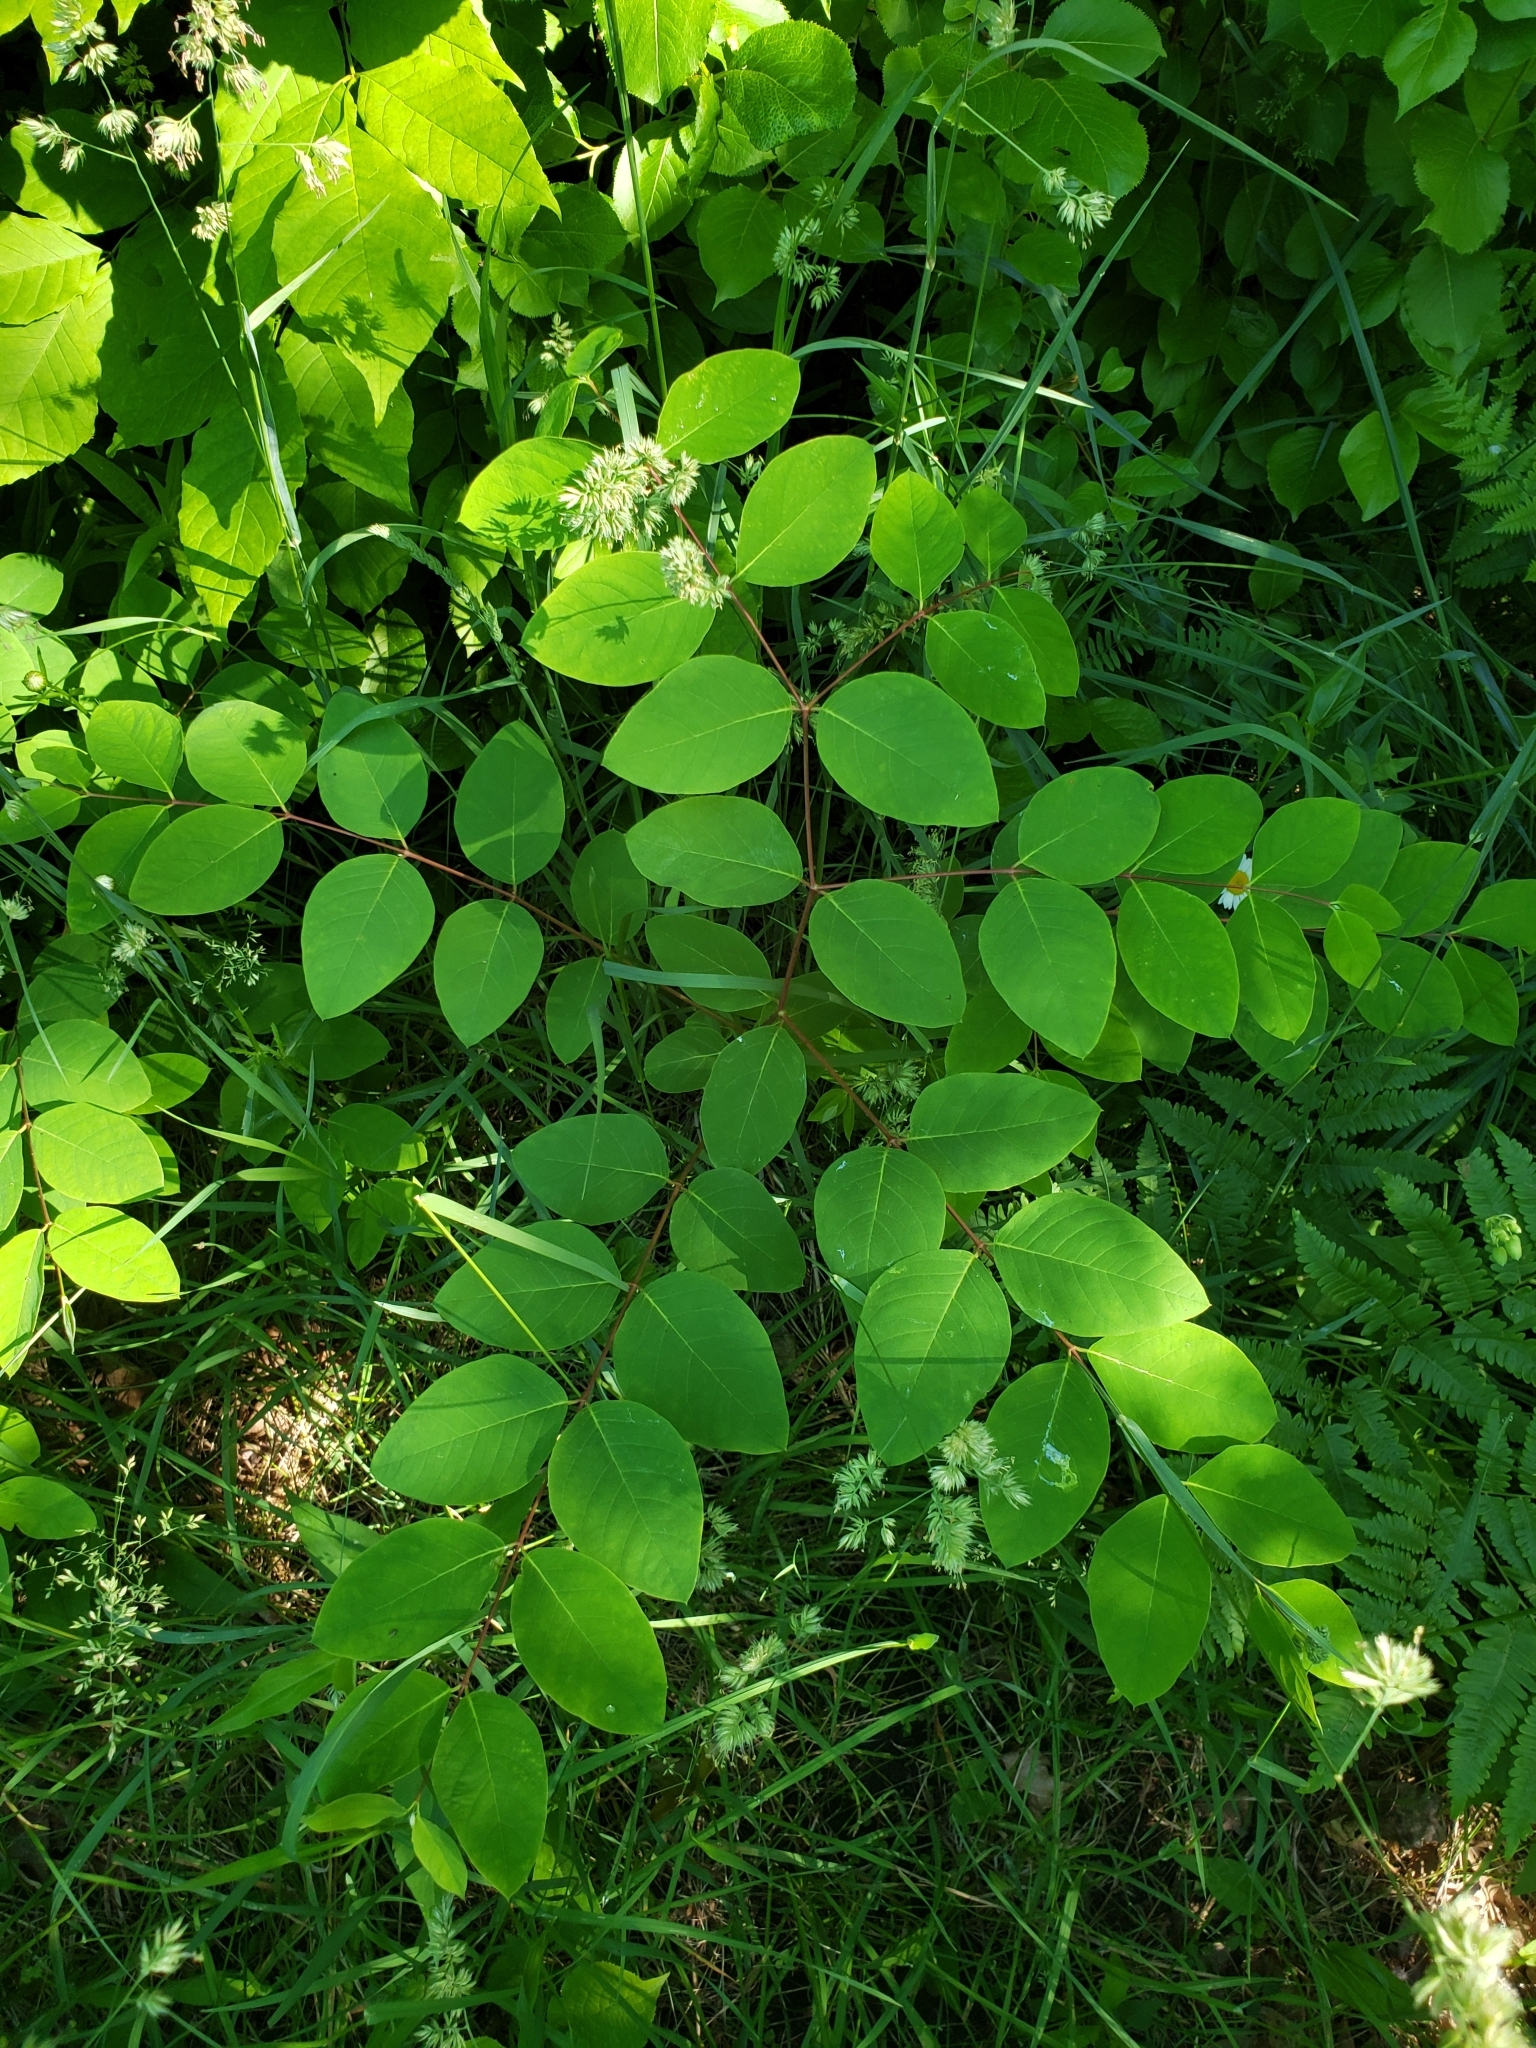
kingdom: Plantae
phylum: Tracheophyta
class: Magnoliopsida
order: Gentianales
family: Apocynaceae
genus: Apocynum
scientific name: Apocynum androsaemifolium
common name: Spreading dogbane
